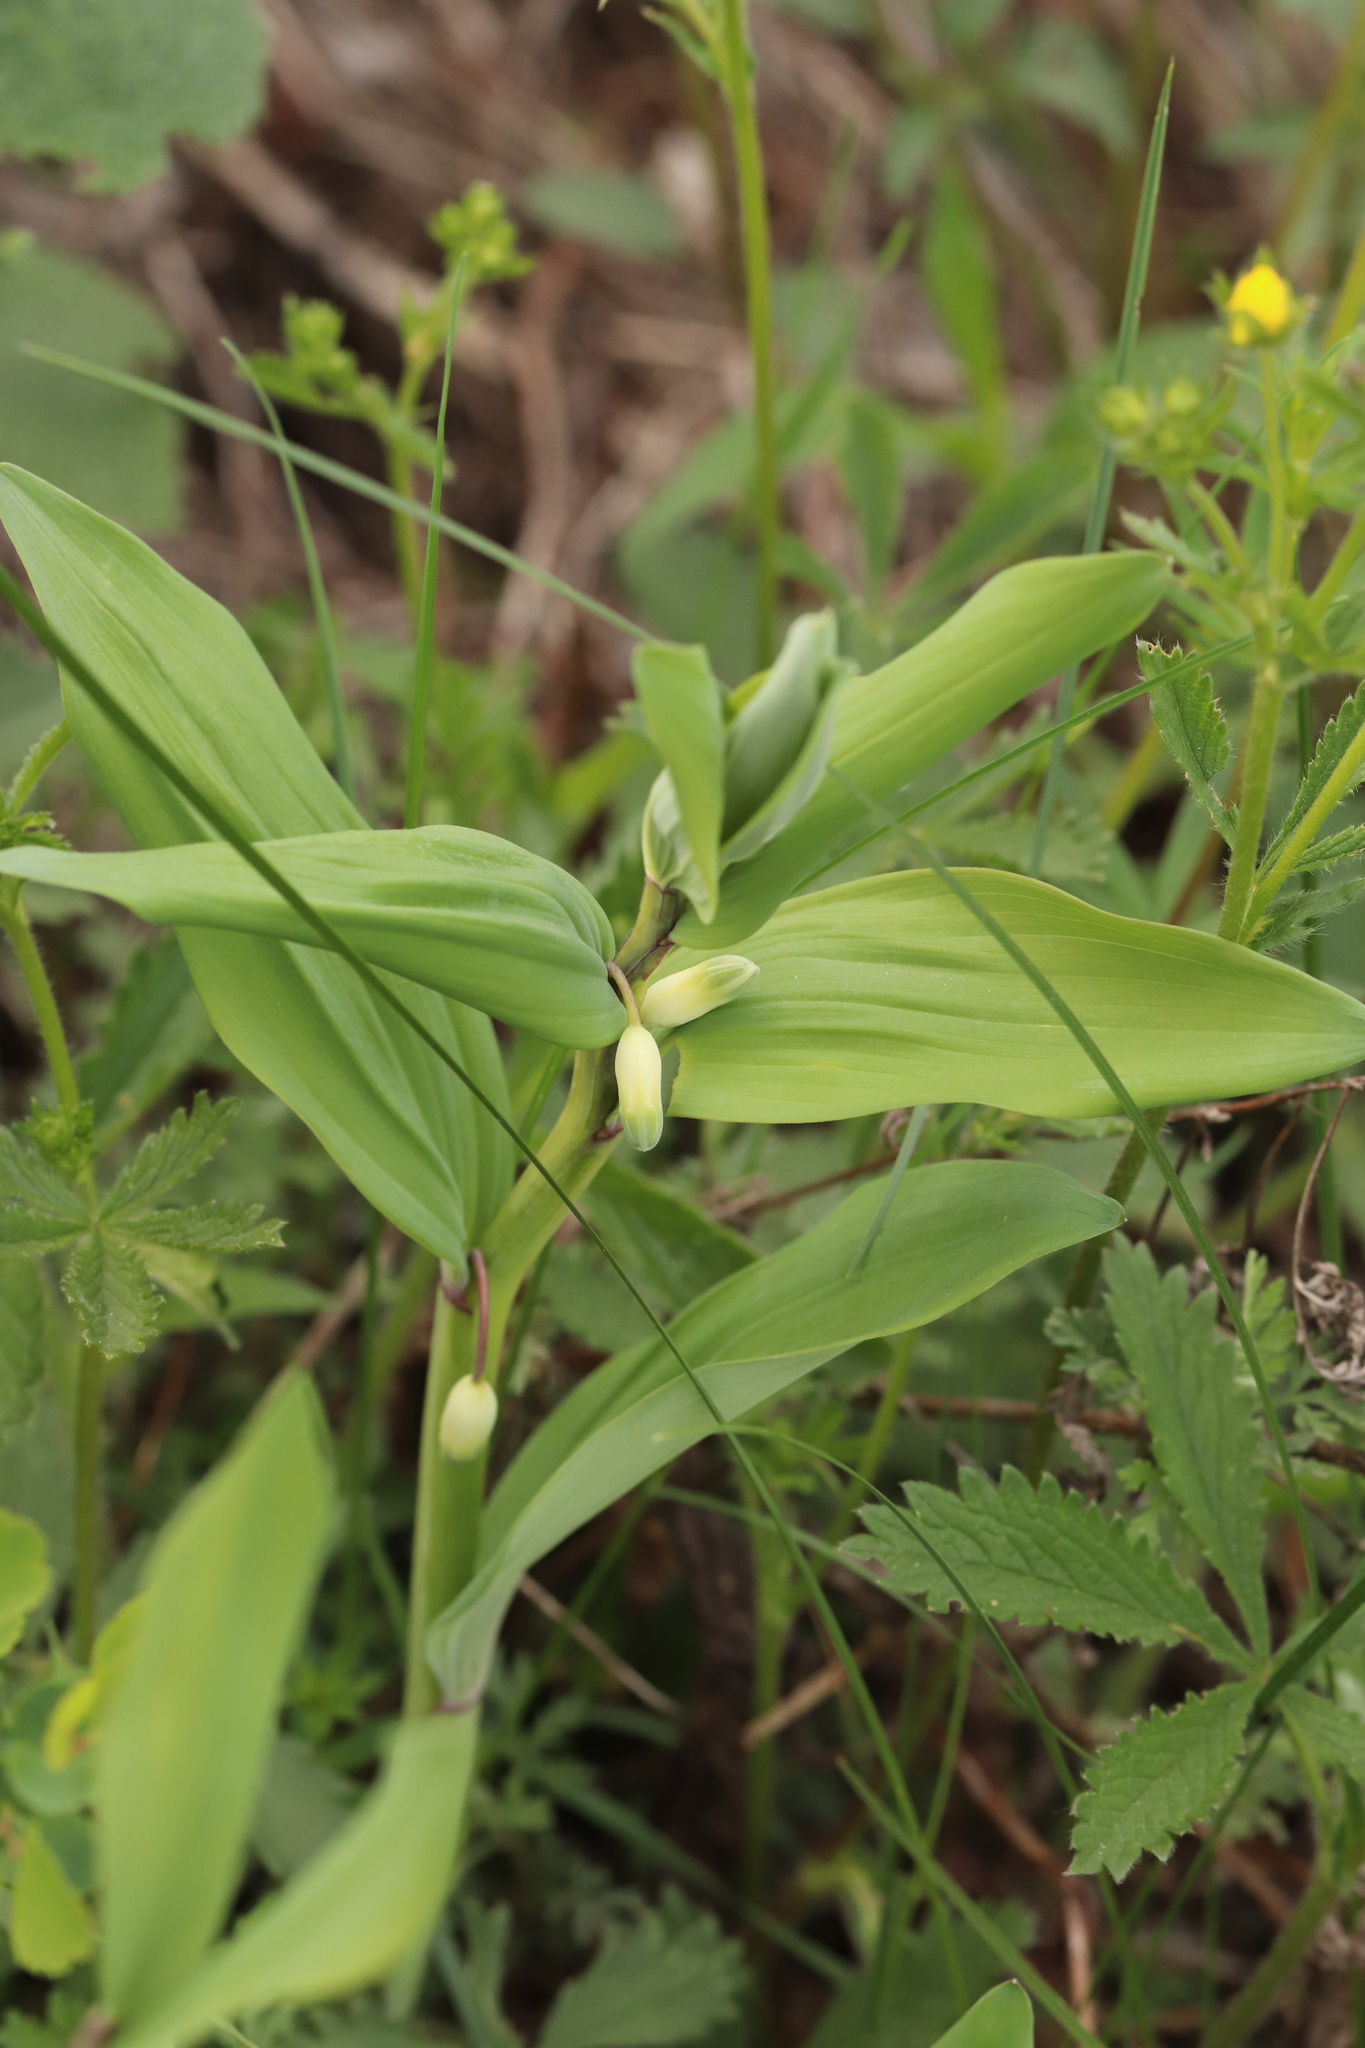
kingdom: Plantae
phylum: Tracheophyta
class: Liliopsida
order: Asparagales
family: Asparagaceae
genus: Polygonatum
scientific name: Polygonatum odoratum
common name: Angular solomon's-seal
